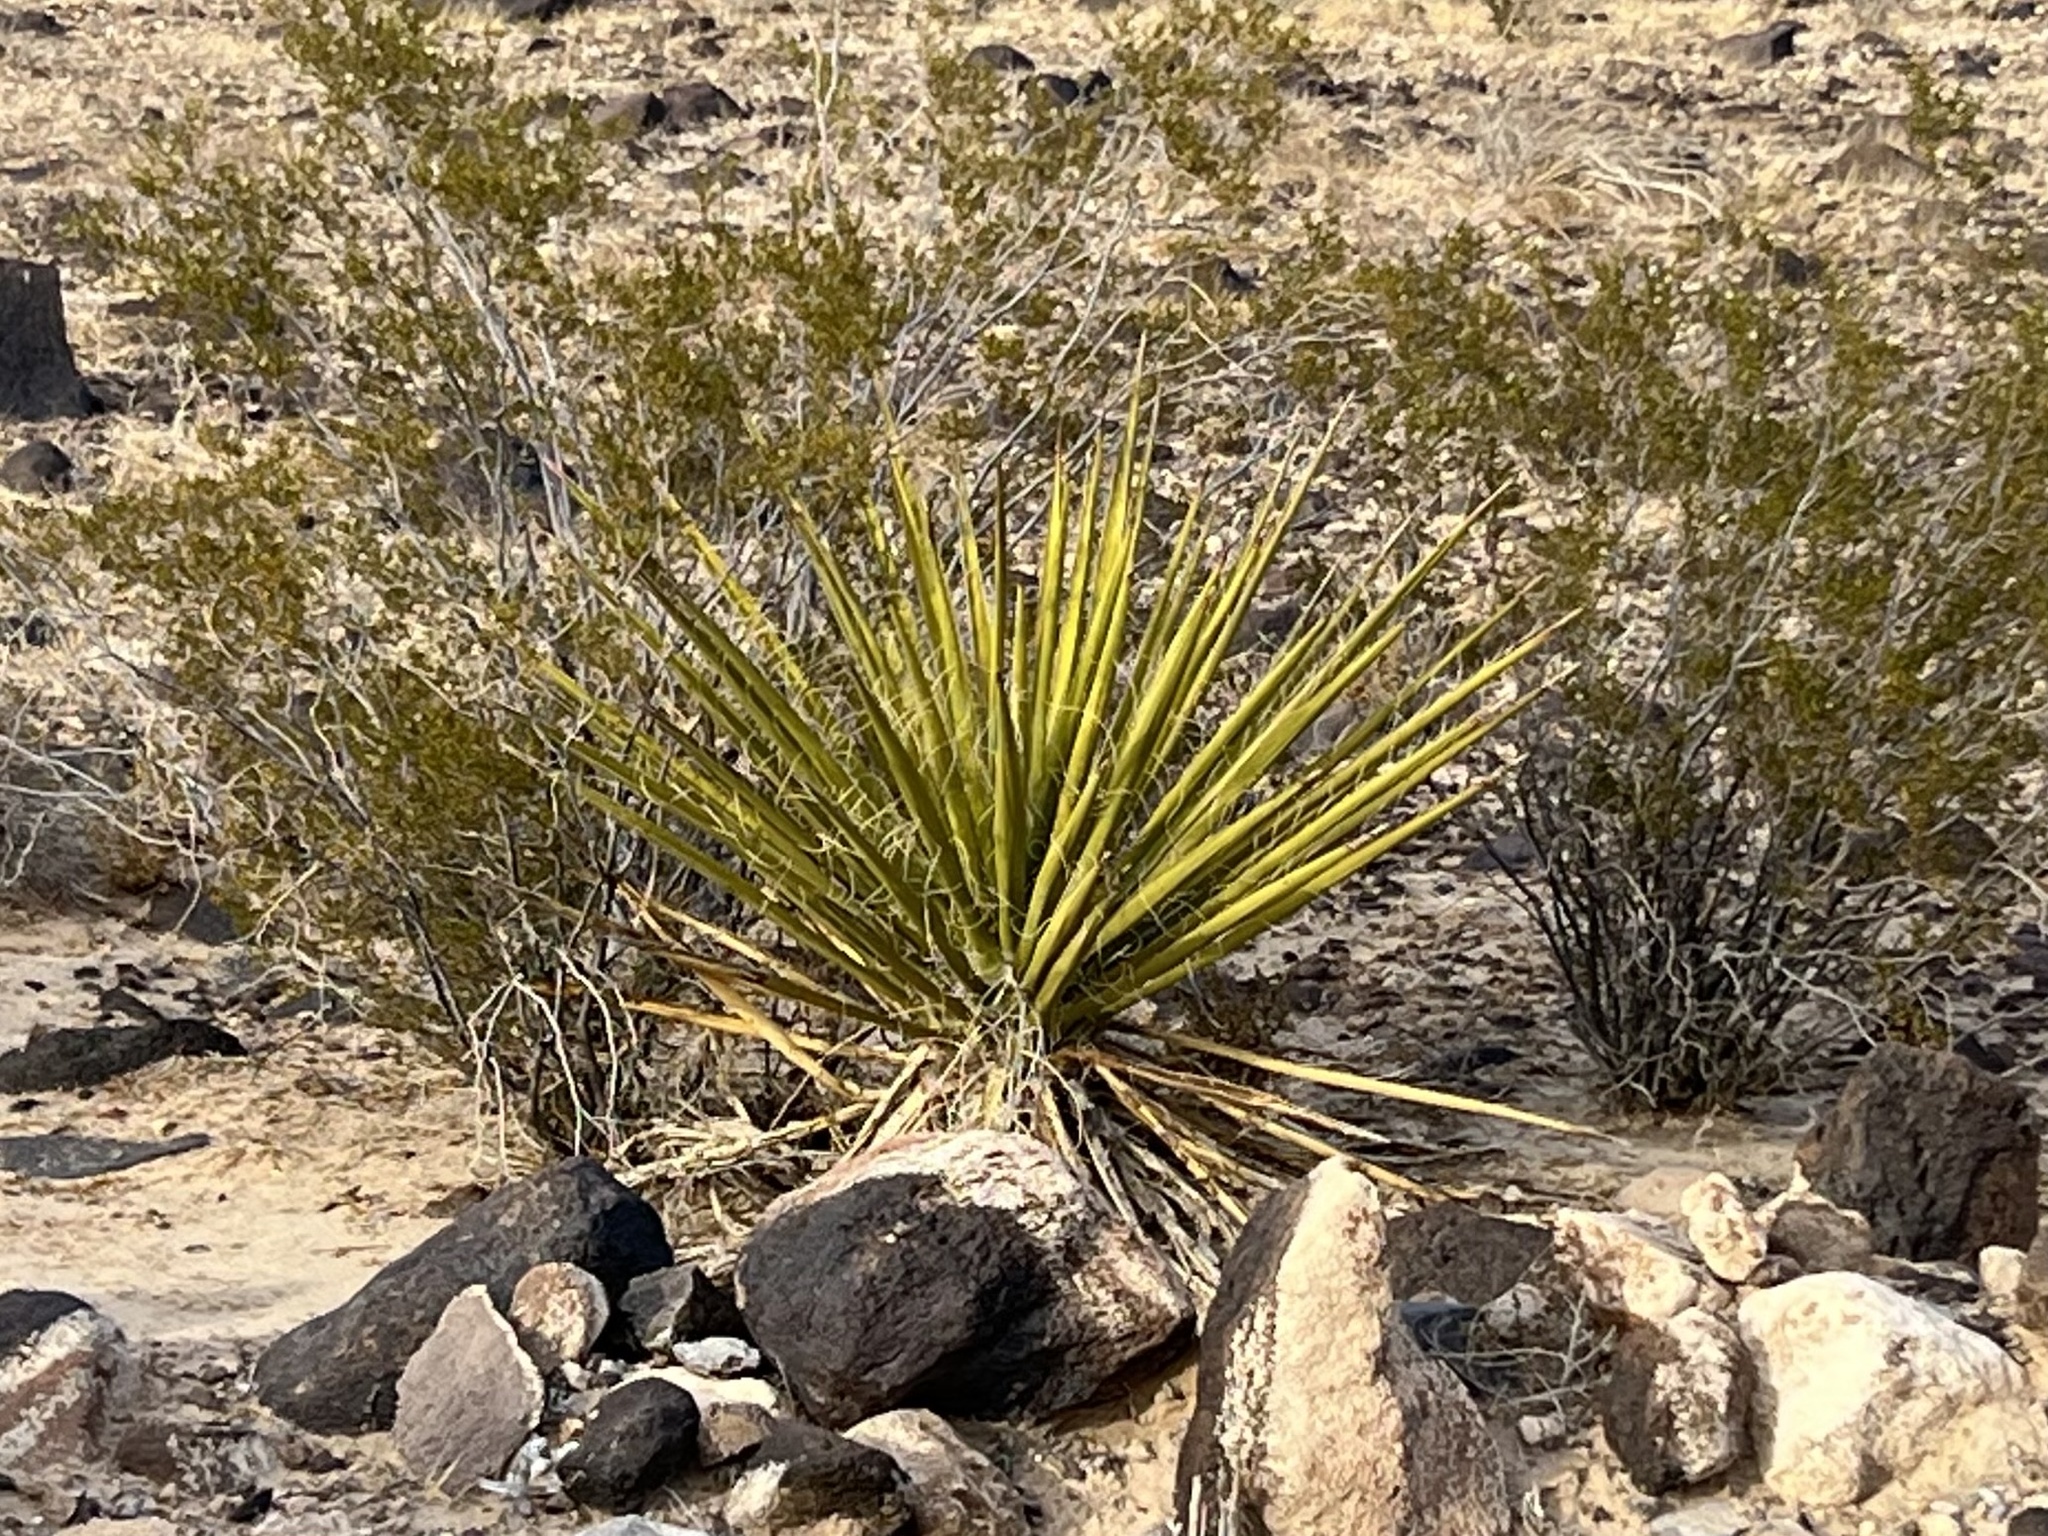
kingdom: Plantae
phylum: Tracheophyta
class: Liliopsida
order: Asparagales
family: Asparagaceae
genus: Yucca
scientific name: Yucca schidigera
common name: Mojave yucca
